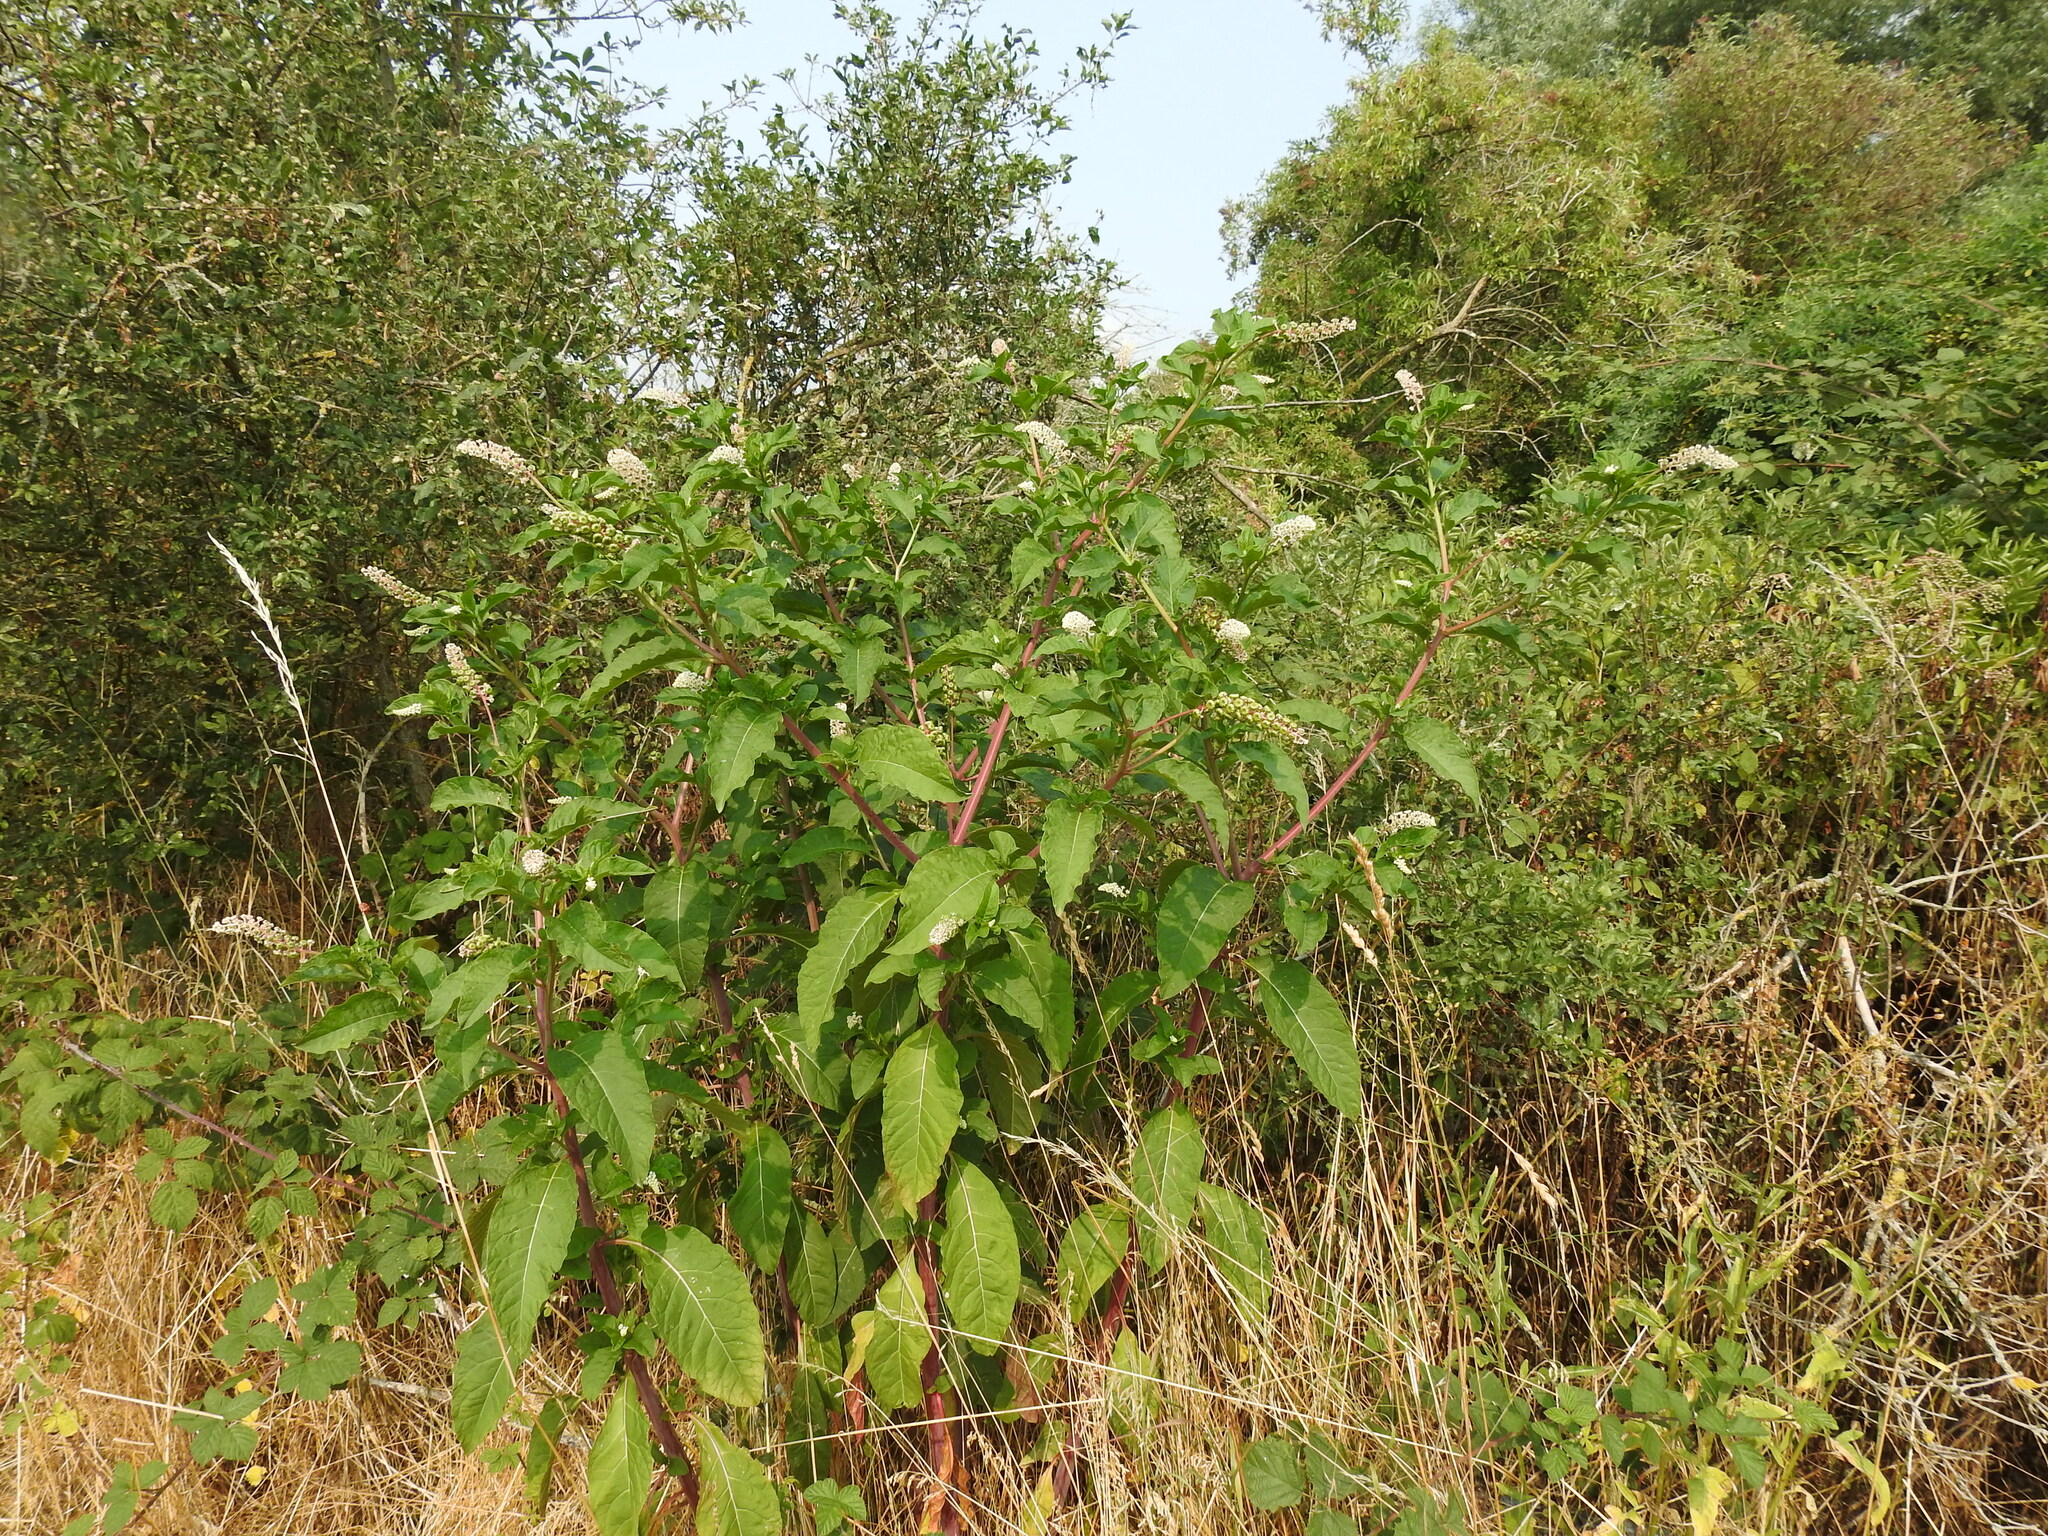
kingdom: Plantae
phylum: Tracheophyta
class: Magnoliopsida
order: Caryophyllales
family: Phytolaccaceae
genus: Phytolacca
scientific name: Phytolacca americana
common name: American pokeweed
